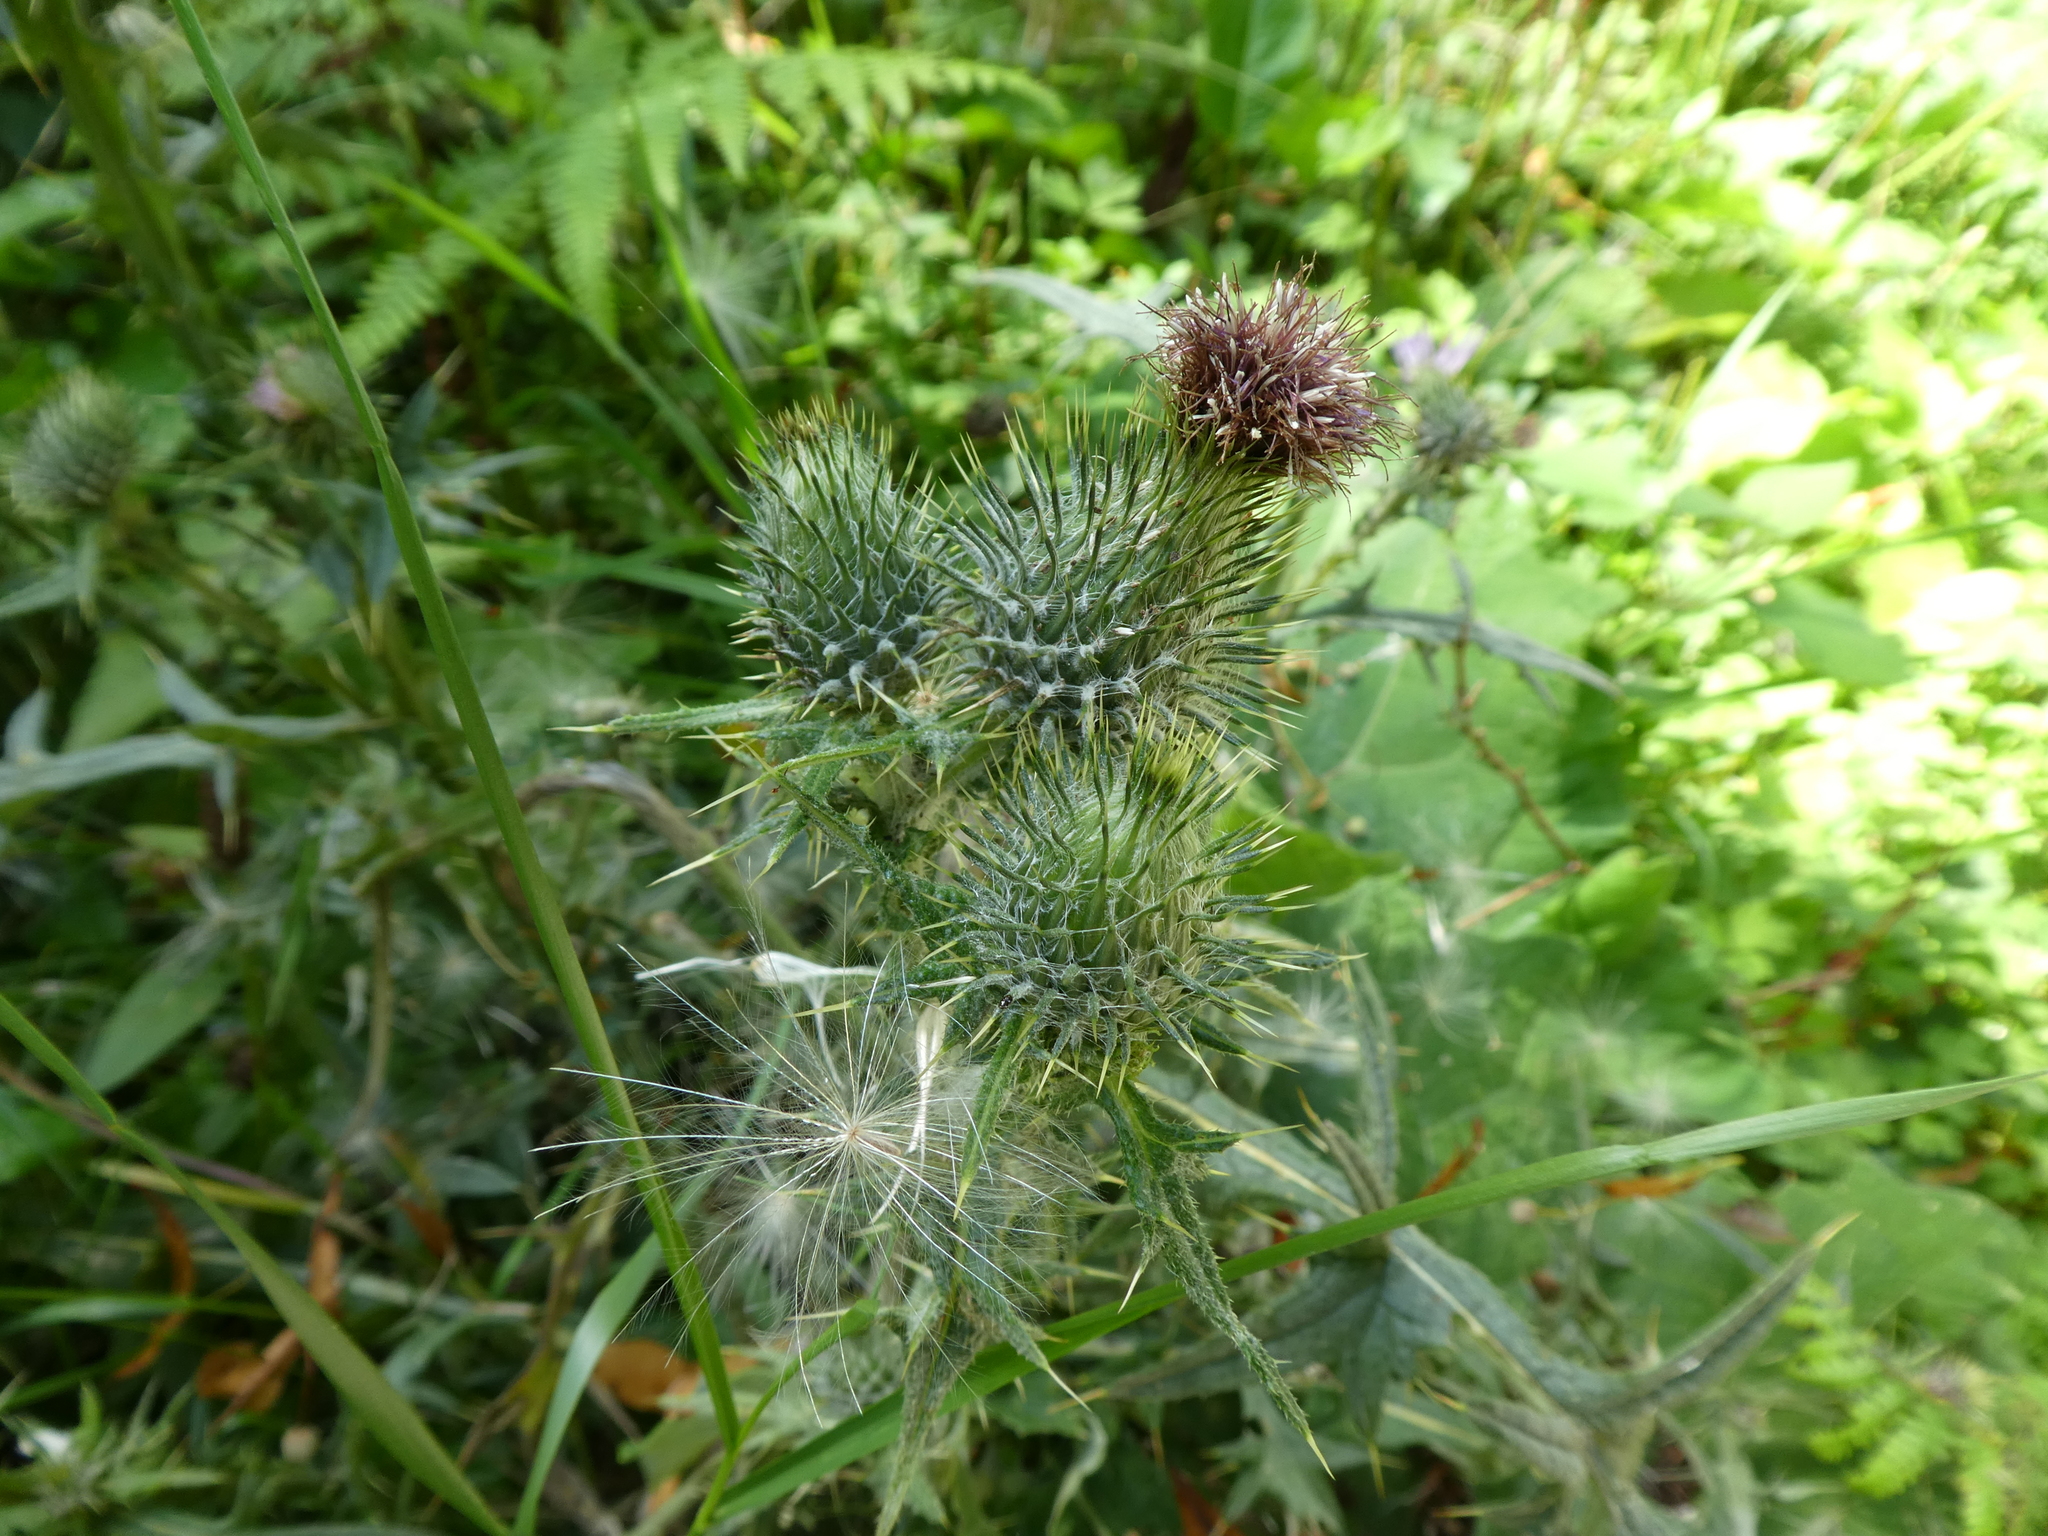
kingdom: Plantae
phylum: Tracheophyta
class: Magnoliopsida
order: Asterales
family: Asteraceae
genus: Cirsium
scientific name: Cirsium vulgare
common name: Bull thistle
